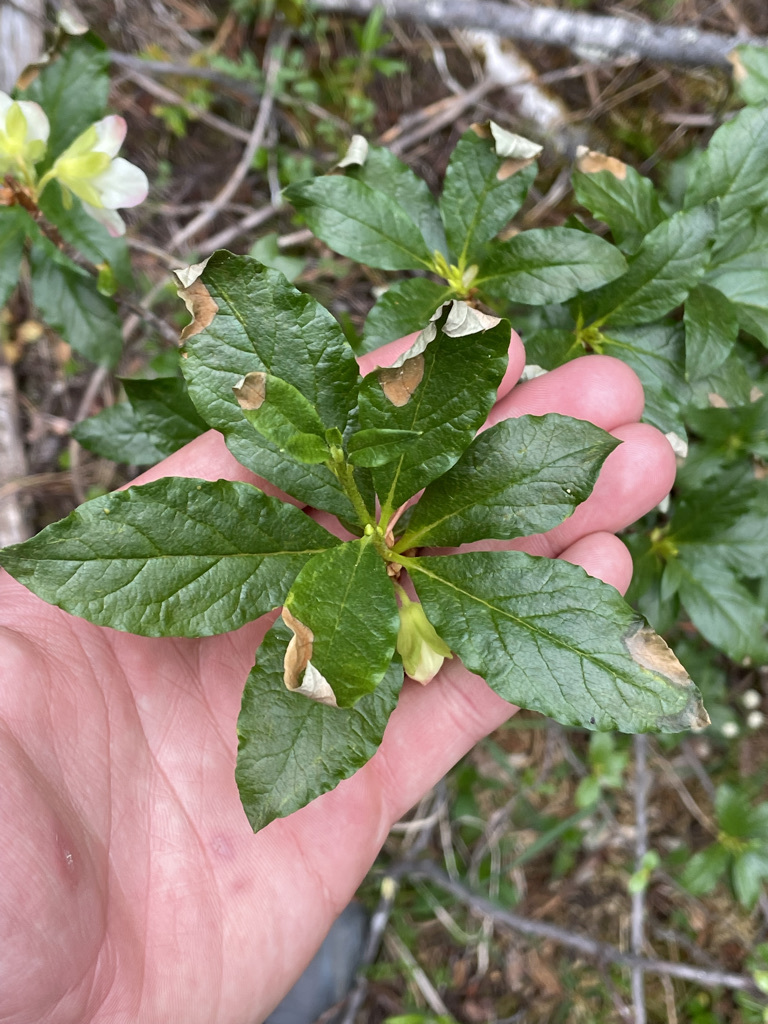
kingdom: Plantae
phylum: Tracheophyta
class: Magnoliopsida
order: Ericales
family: Ericaceae
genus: Rhododendron
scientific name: Rhododendron albiflorum
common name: White rhododendron
